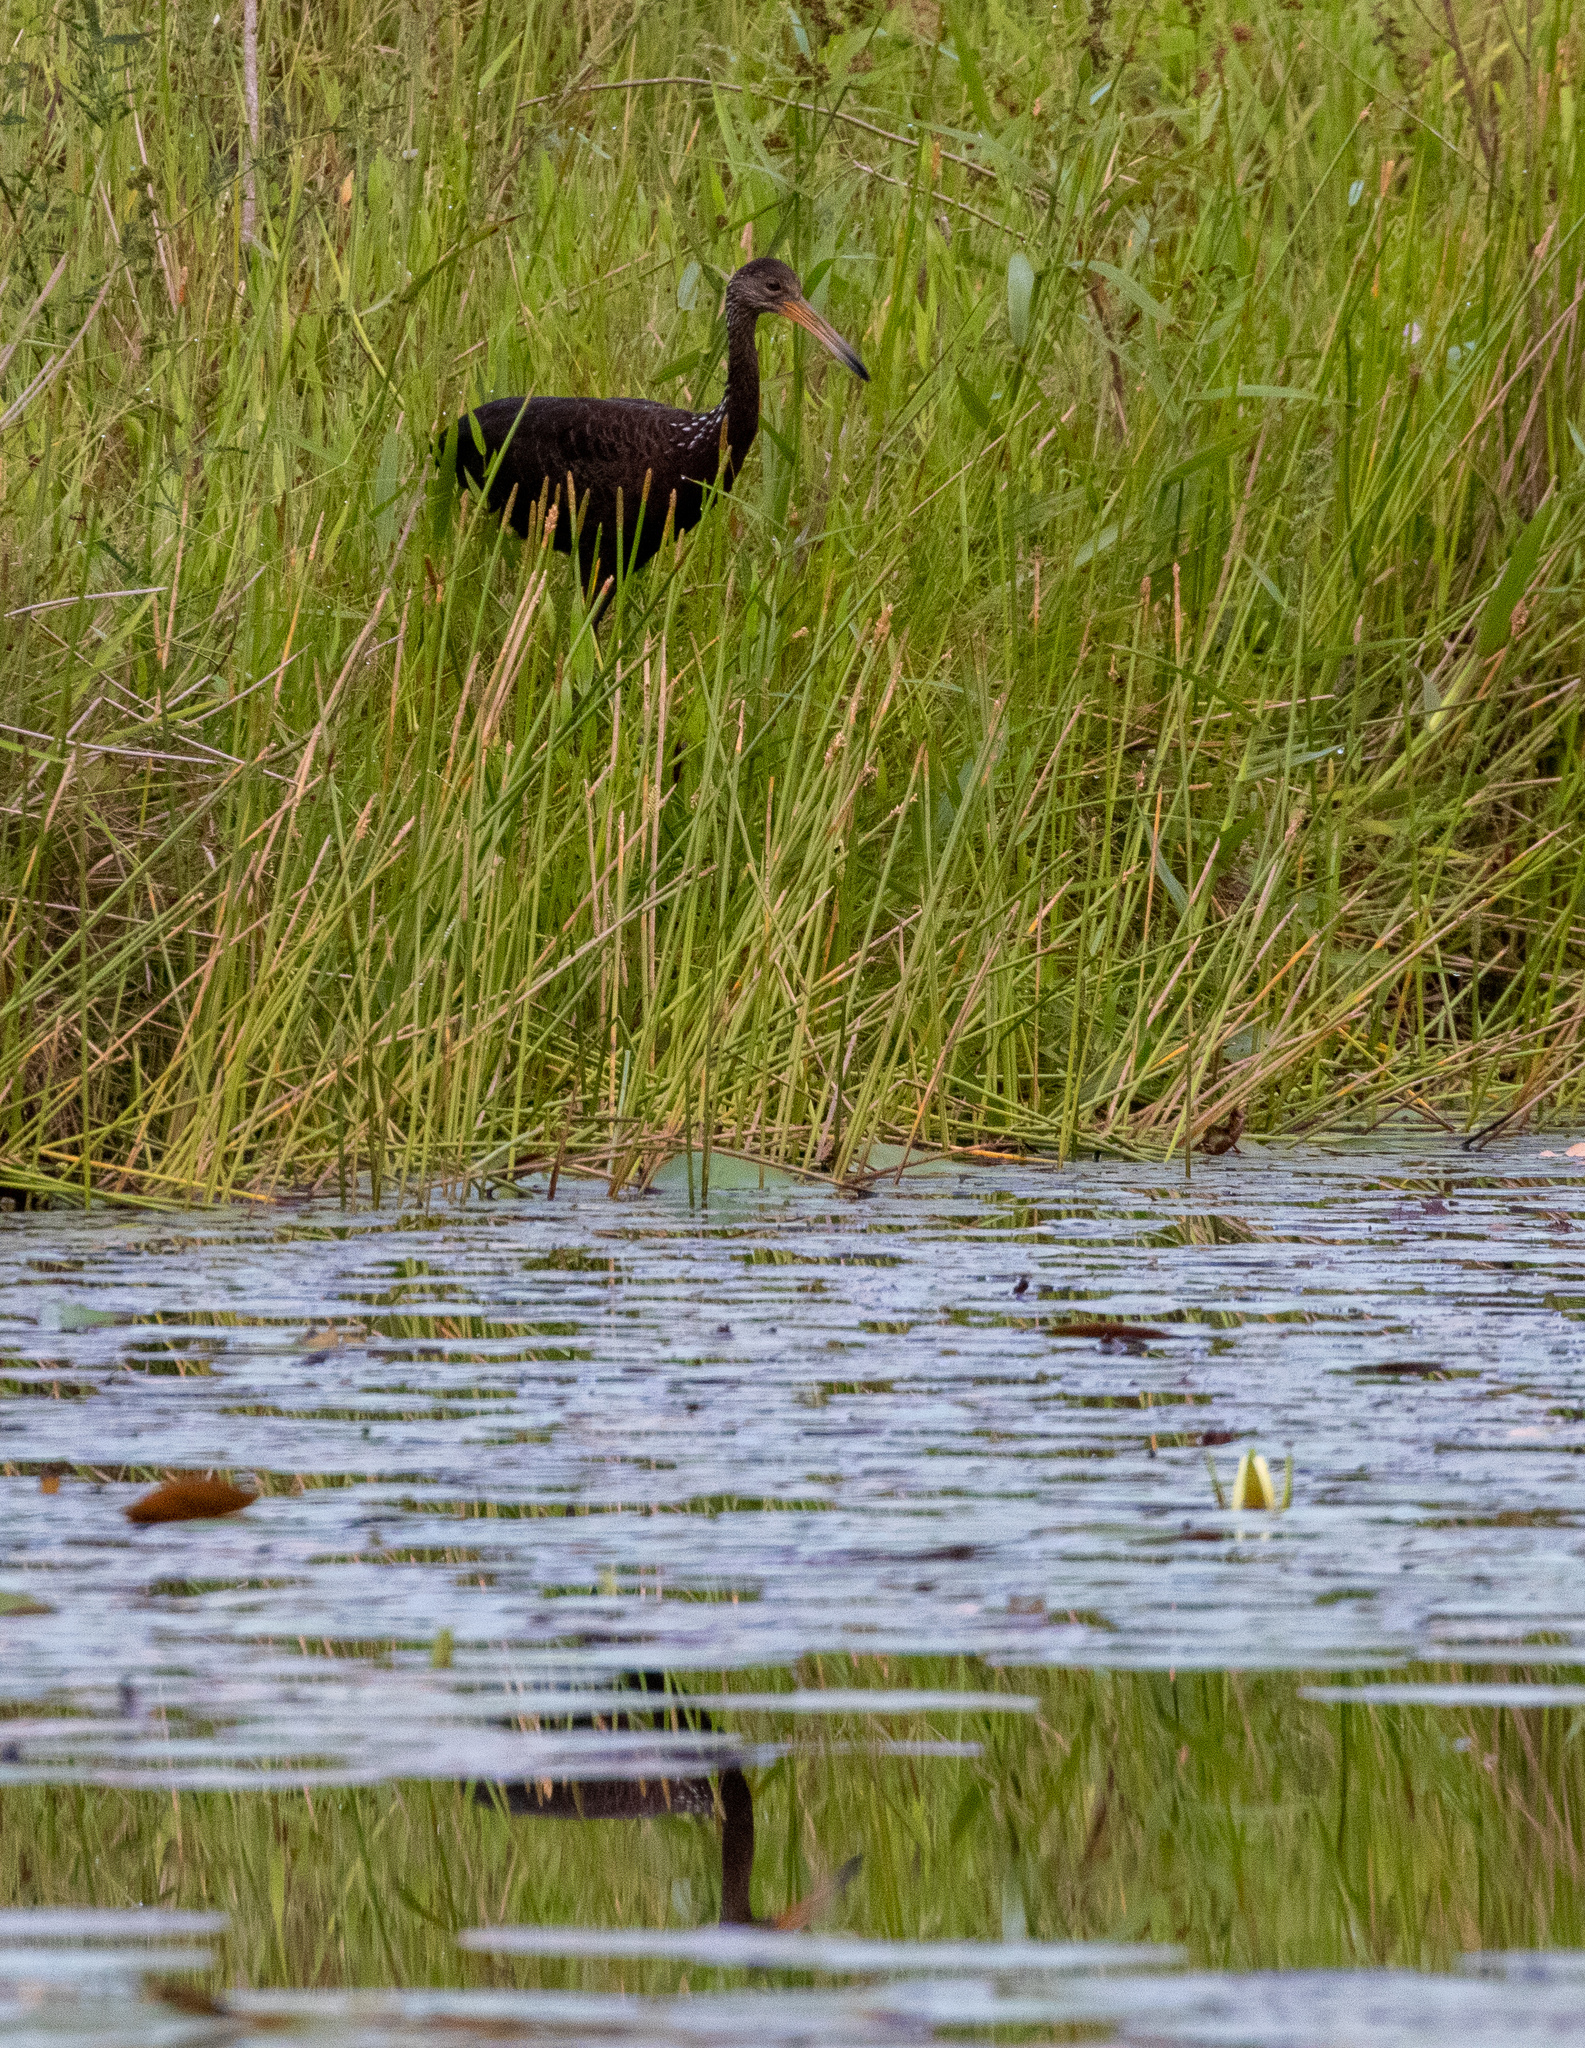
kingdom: Animalia
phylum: Chordata
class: Aves
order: Gruiformes
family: Aramidae
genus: Aramus
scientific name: Aramus guarauna
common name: Limpkin
